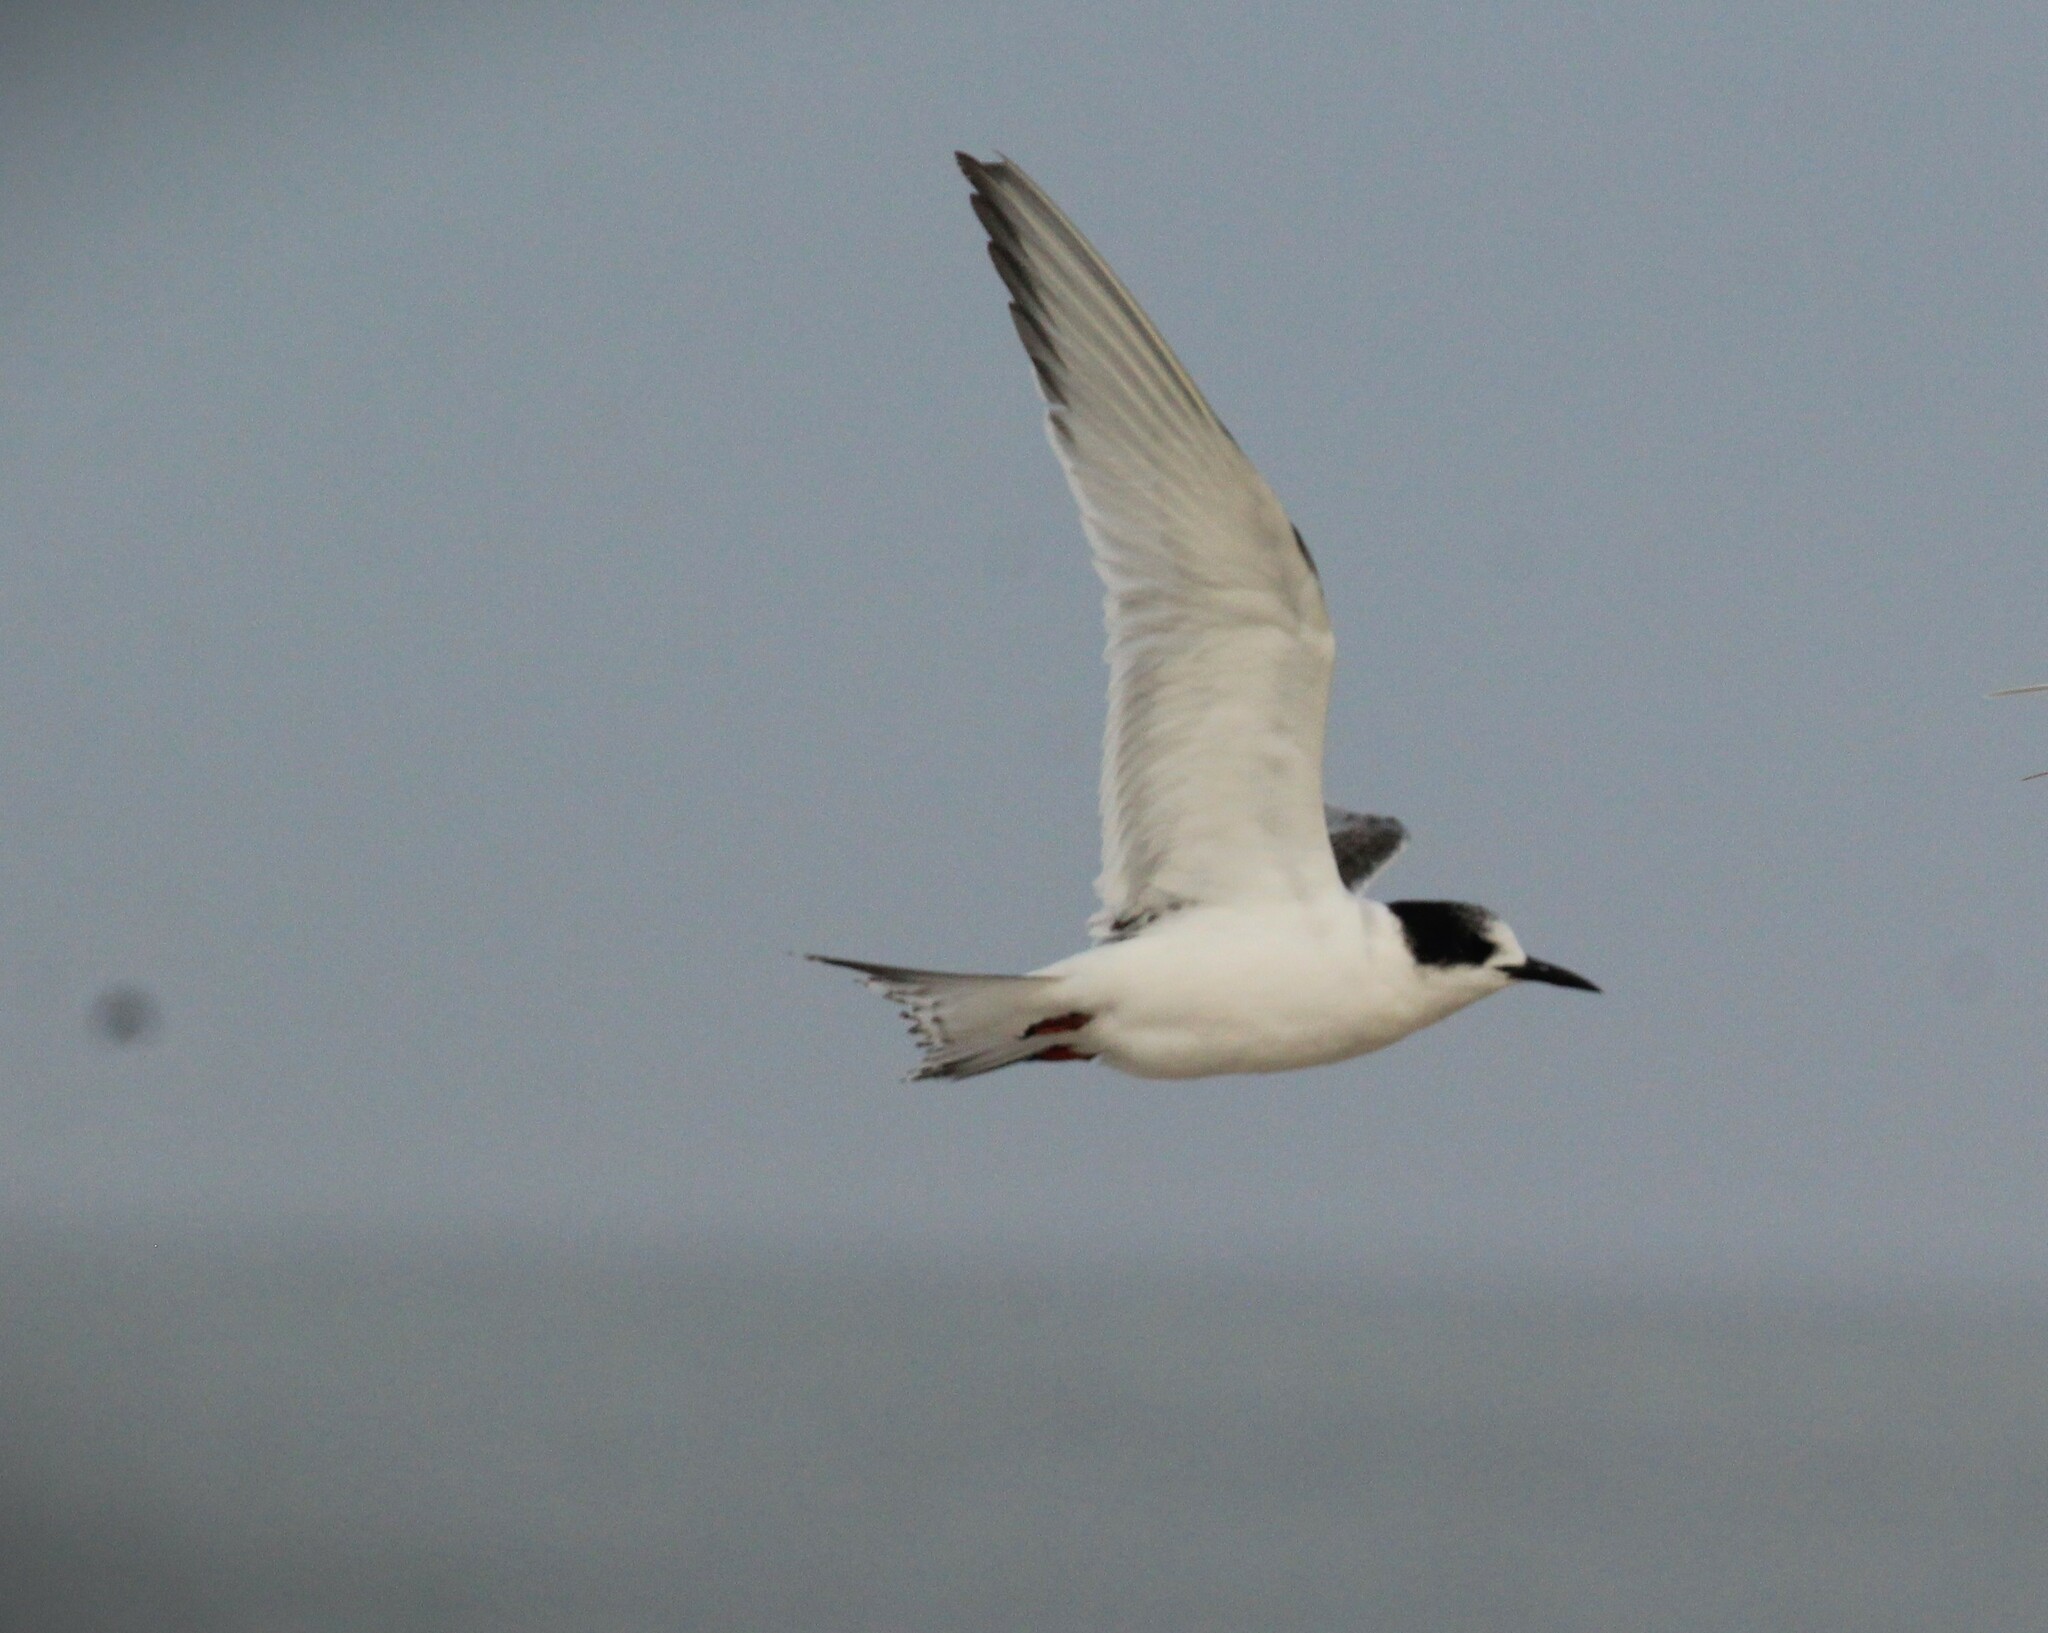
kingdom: Animalia
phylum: Chordata
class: Aves
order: Charadriiformes
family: Laridae
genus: Sterna
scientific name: Sterna hirundinacea
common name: South american tern
